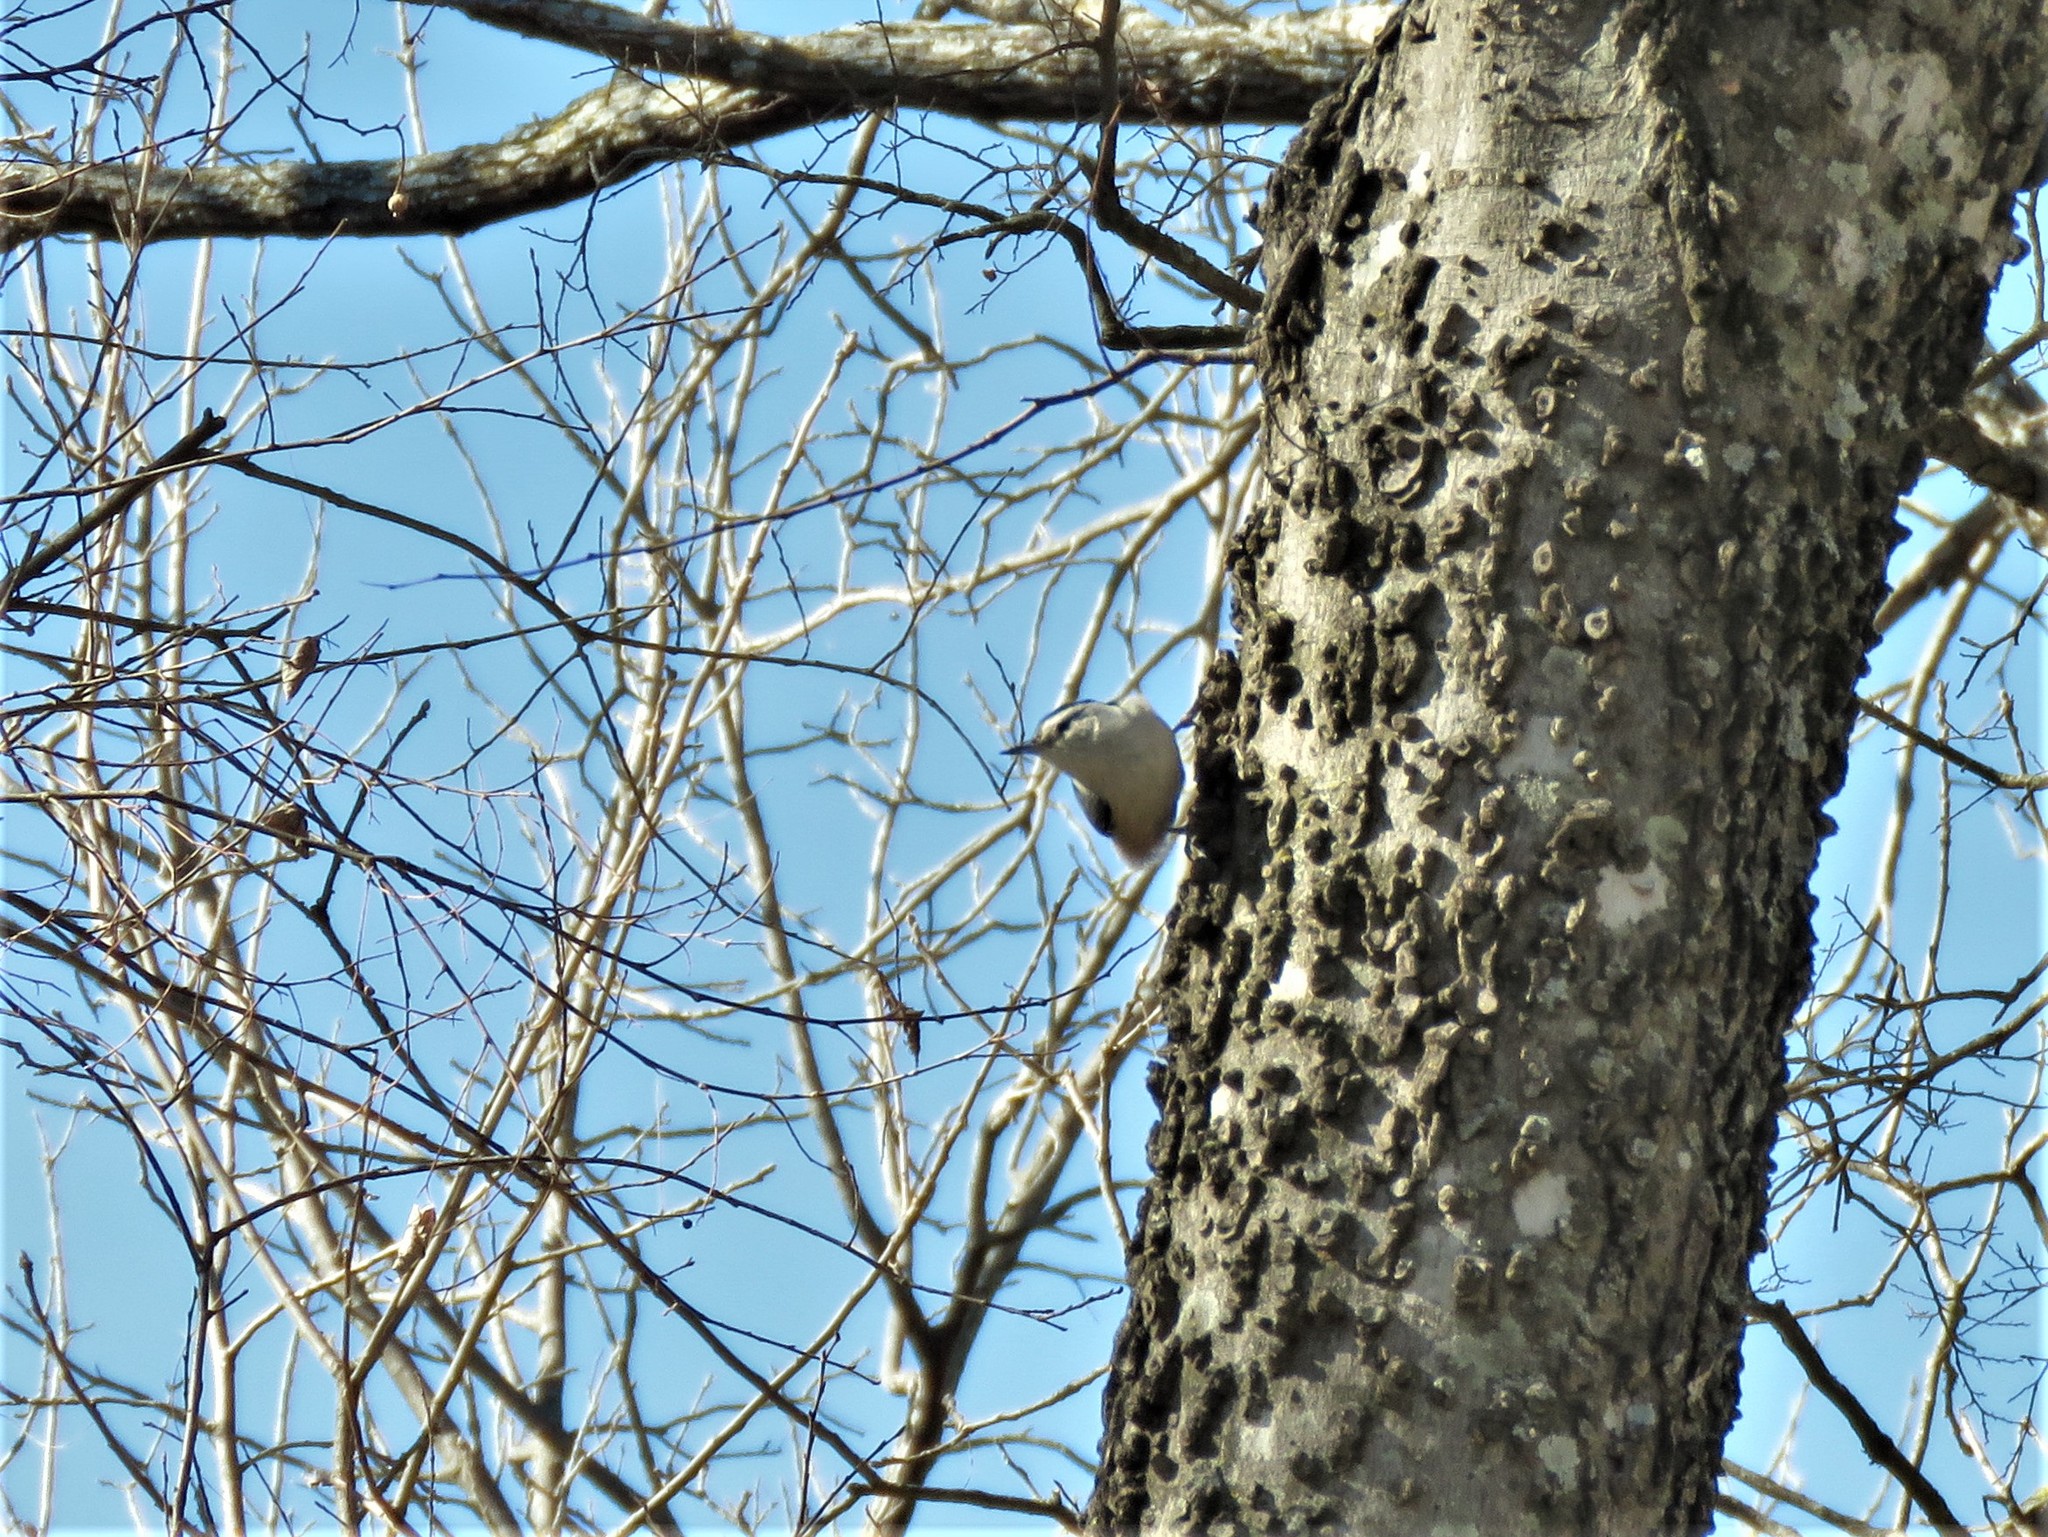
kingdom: Animalia
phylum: Chordata
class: Aves
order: Passeriformes
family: Sittidae
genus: Sitta
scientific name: Sitta carolinensis
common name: White-breasted nuthatch
